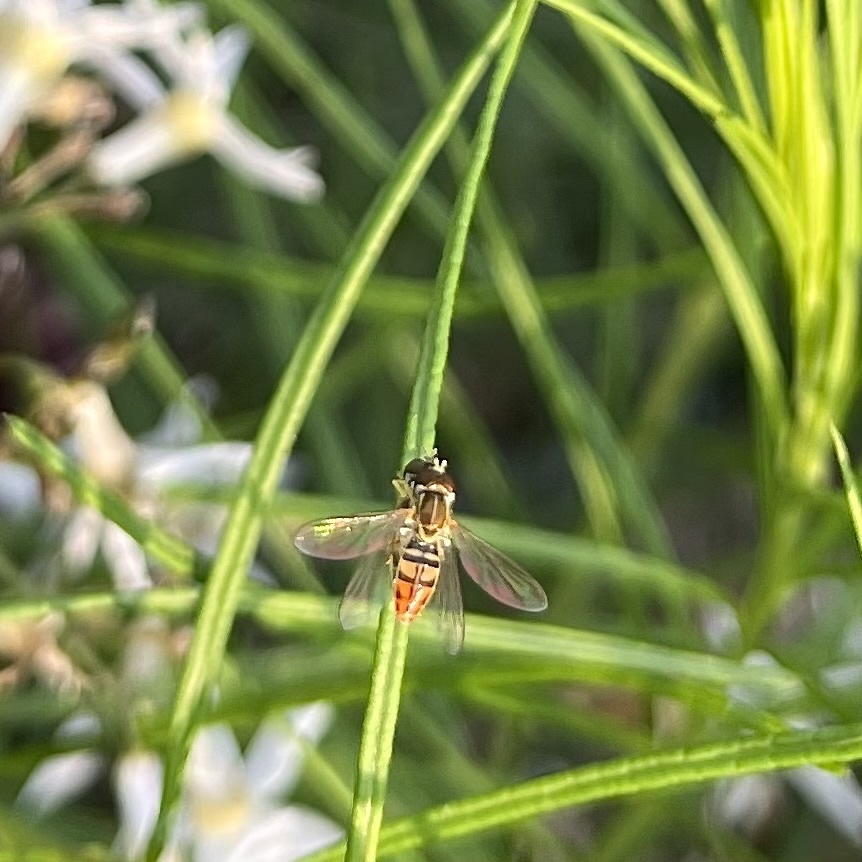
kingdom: Animalia
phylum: Arthropoda
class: Insecta
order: Diptera
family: Syrphidae
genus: Toxomerus
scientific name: Toxomerus marginatus
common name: Syrphid fly
